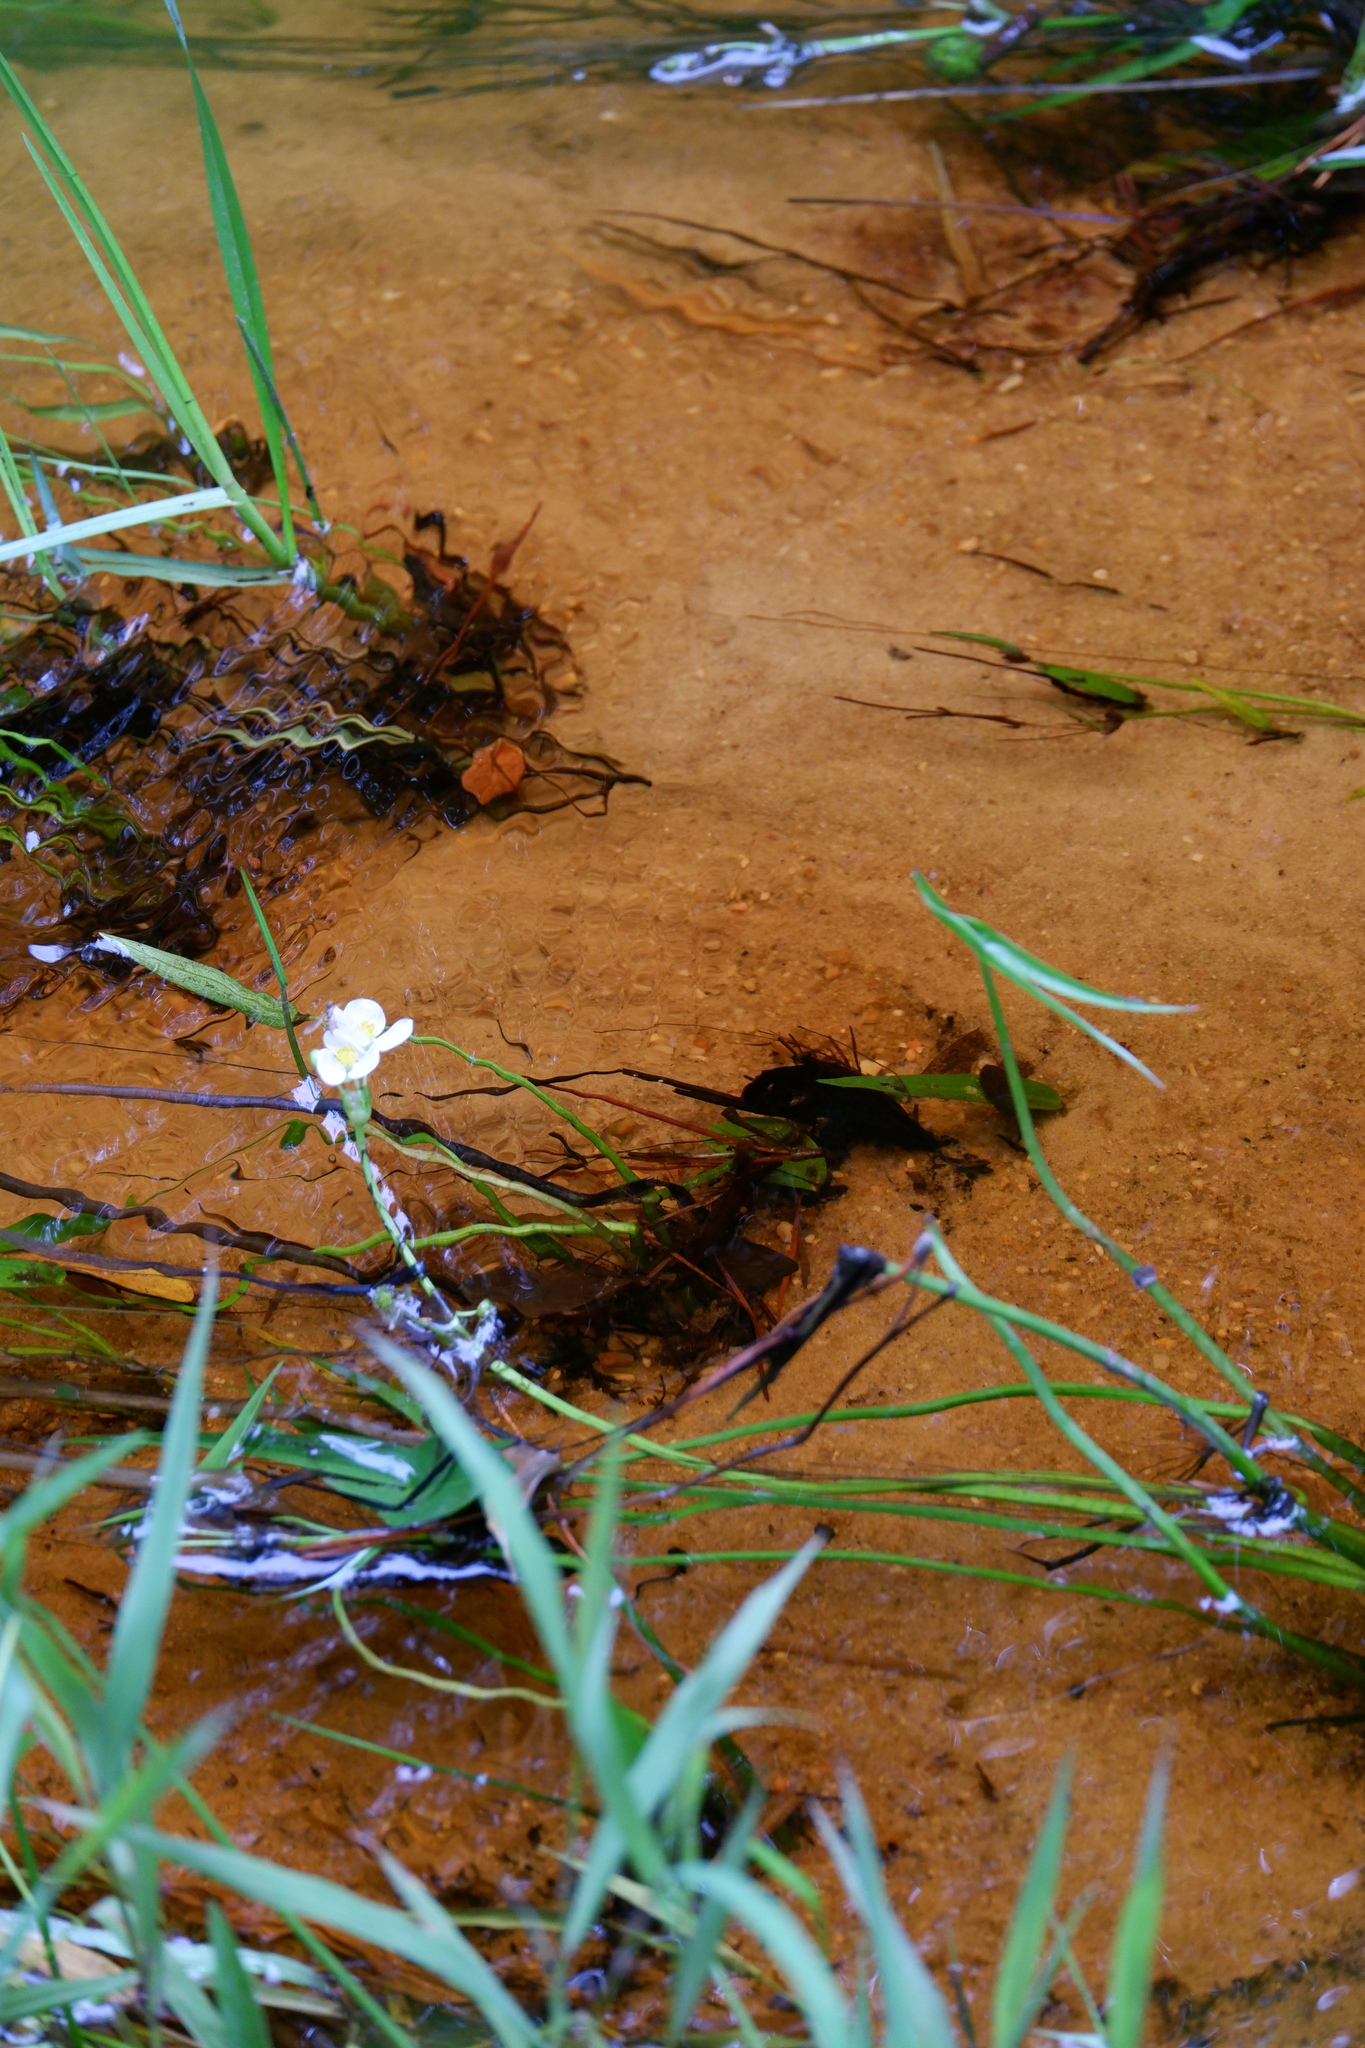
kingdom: Plantae
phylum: Tracheophyta
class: Liliopsida
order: Alismatales
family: Alismataceae
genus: Sagittaria
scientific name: Sagittaria engelmanniana
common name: Acid-water arrowhead
